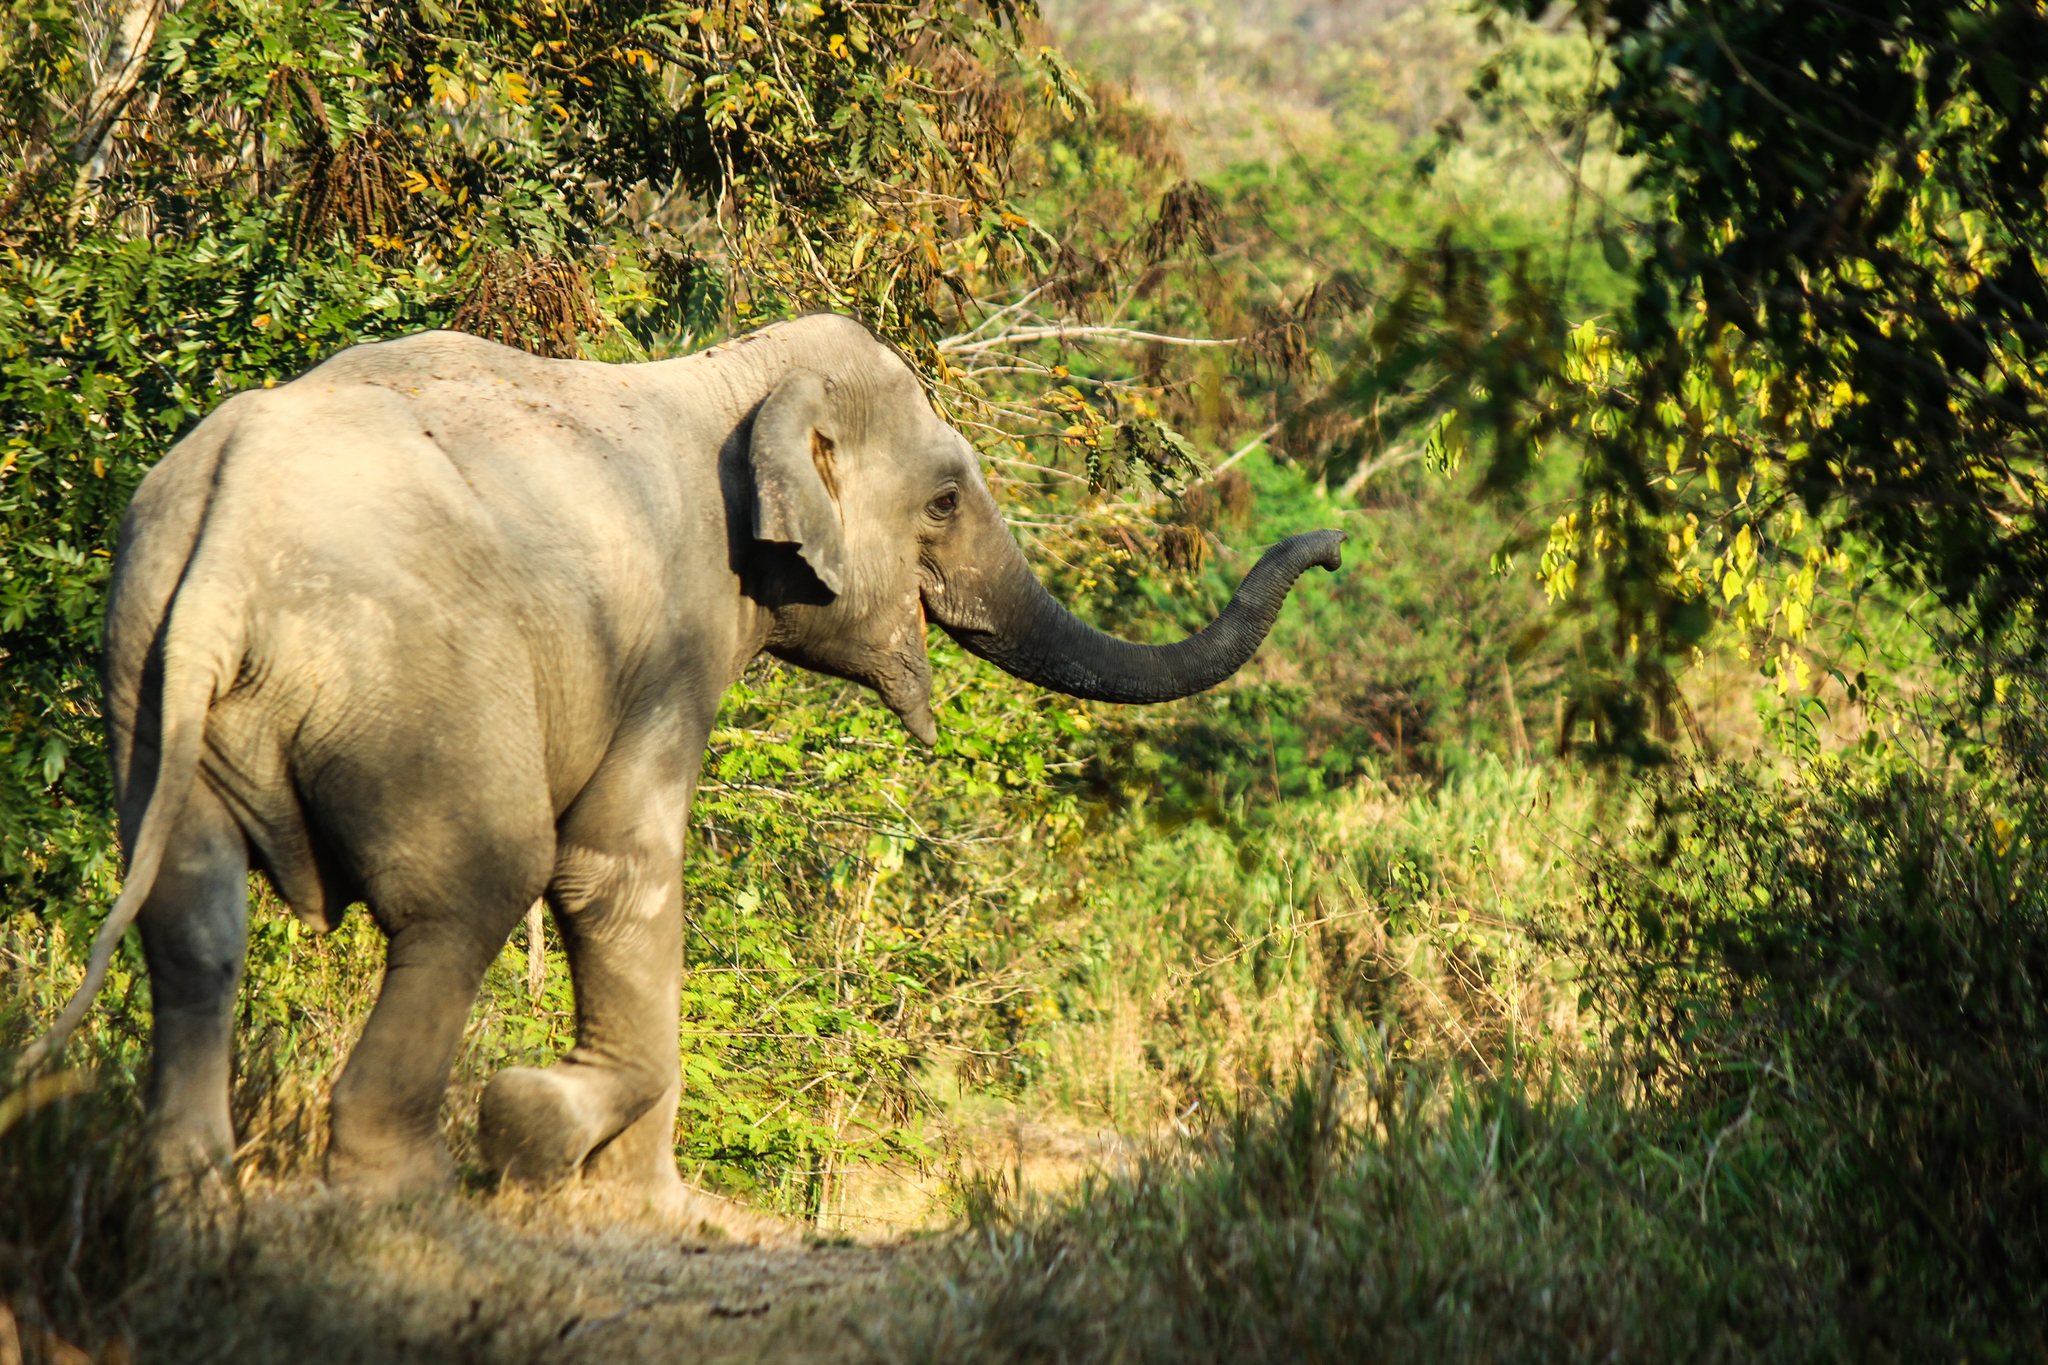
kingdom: Animalia
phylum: Chordata
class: Mammalia
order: Proboscidea
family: Elephantidae
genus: Elephas
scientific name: Elephas maximus
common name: Asian elephant
